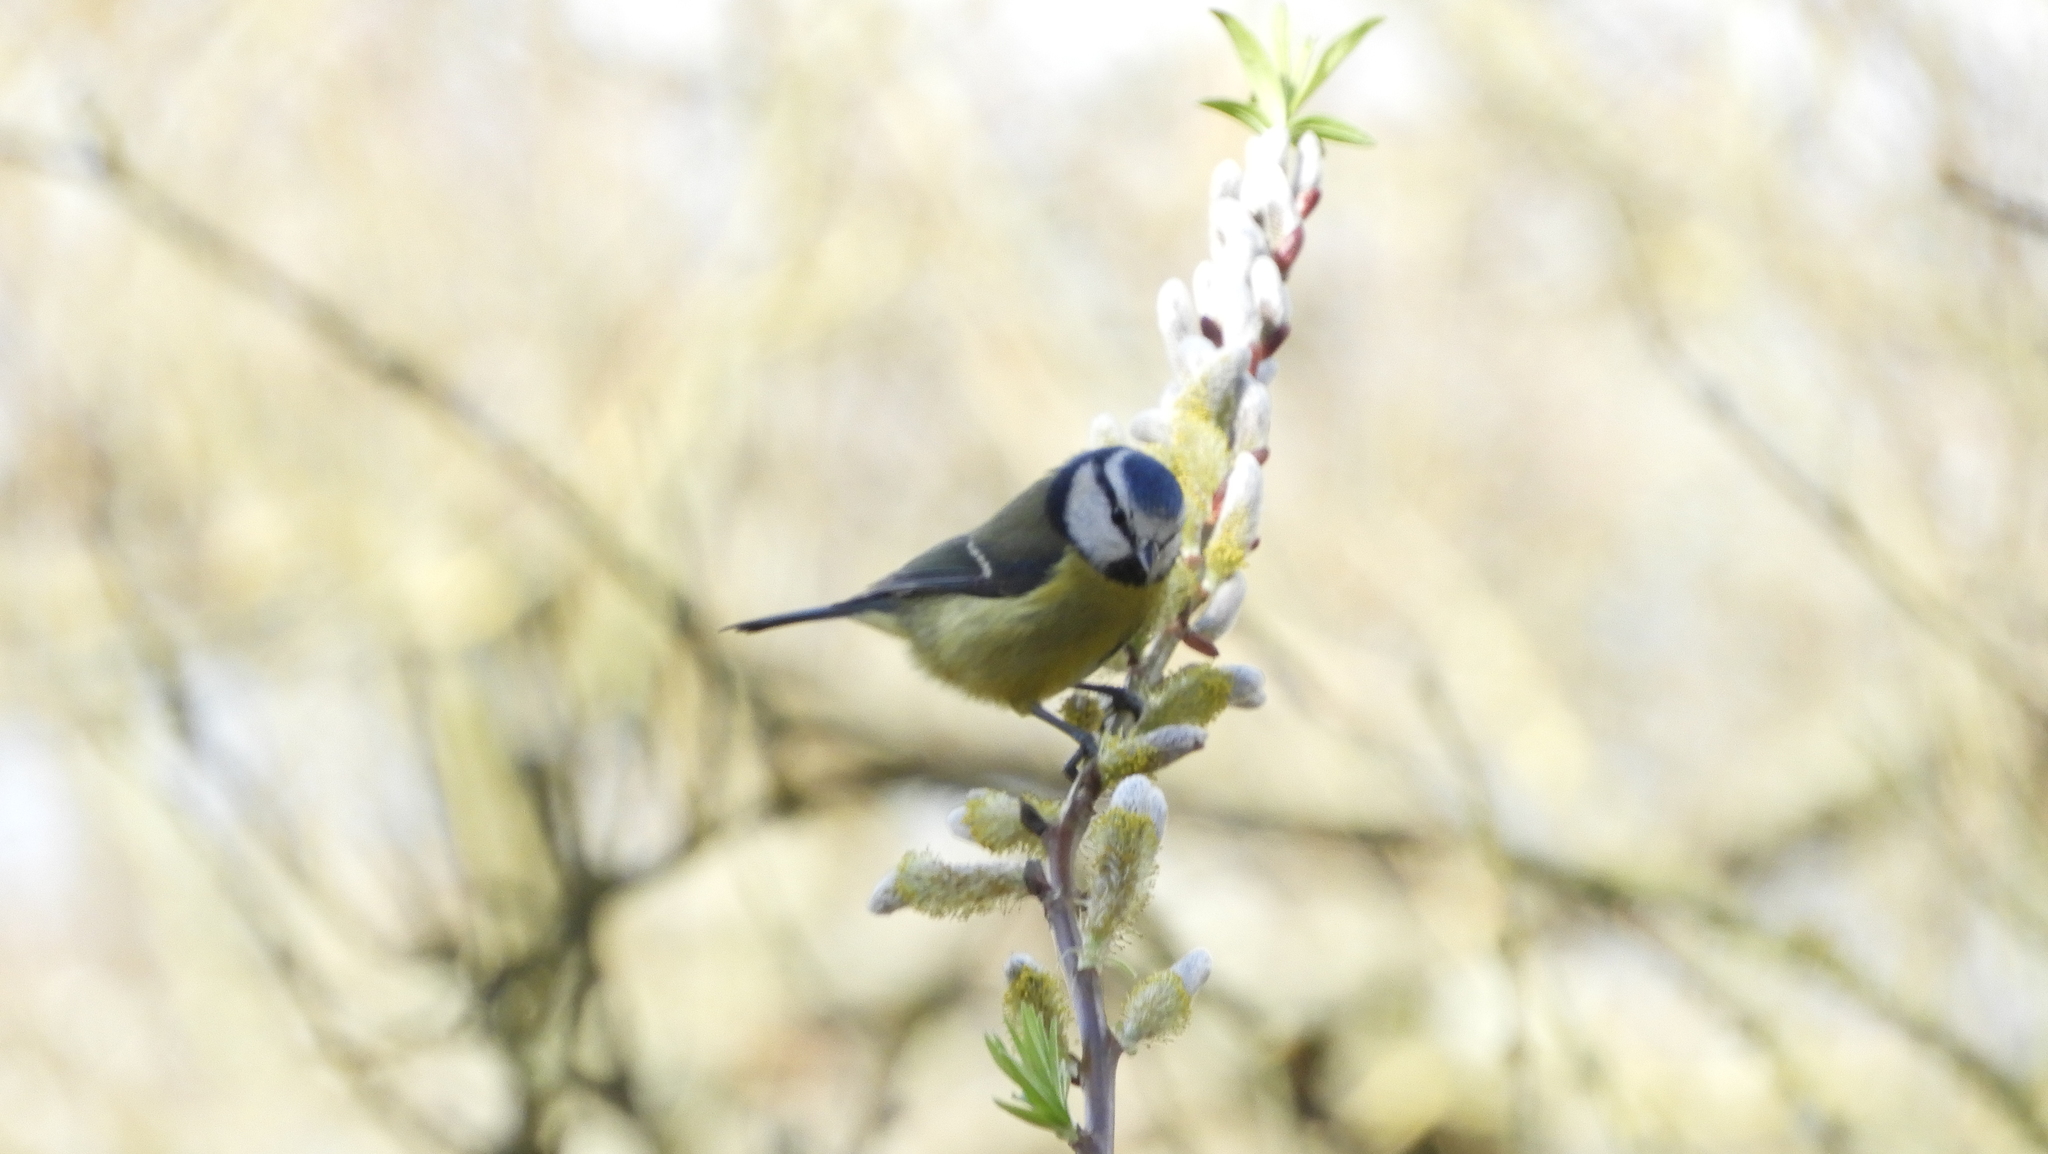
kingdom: Animalia
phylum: Chordata
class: Aves
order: Passeriformes
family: Paridae
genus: Cyanistes
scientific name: Cyanistes caeruleus
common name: Eurasian blue tit
